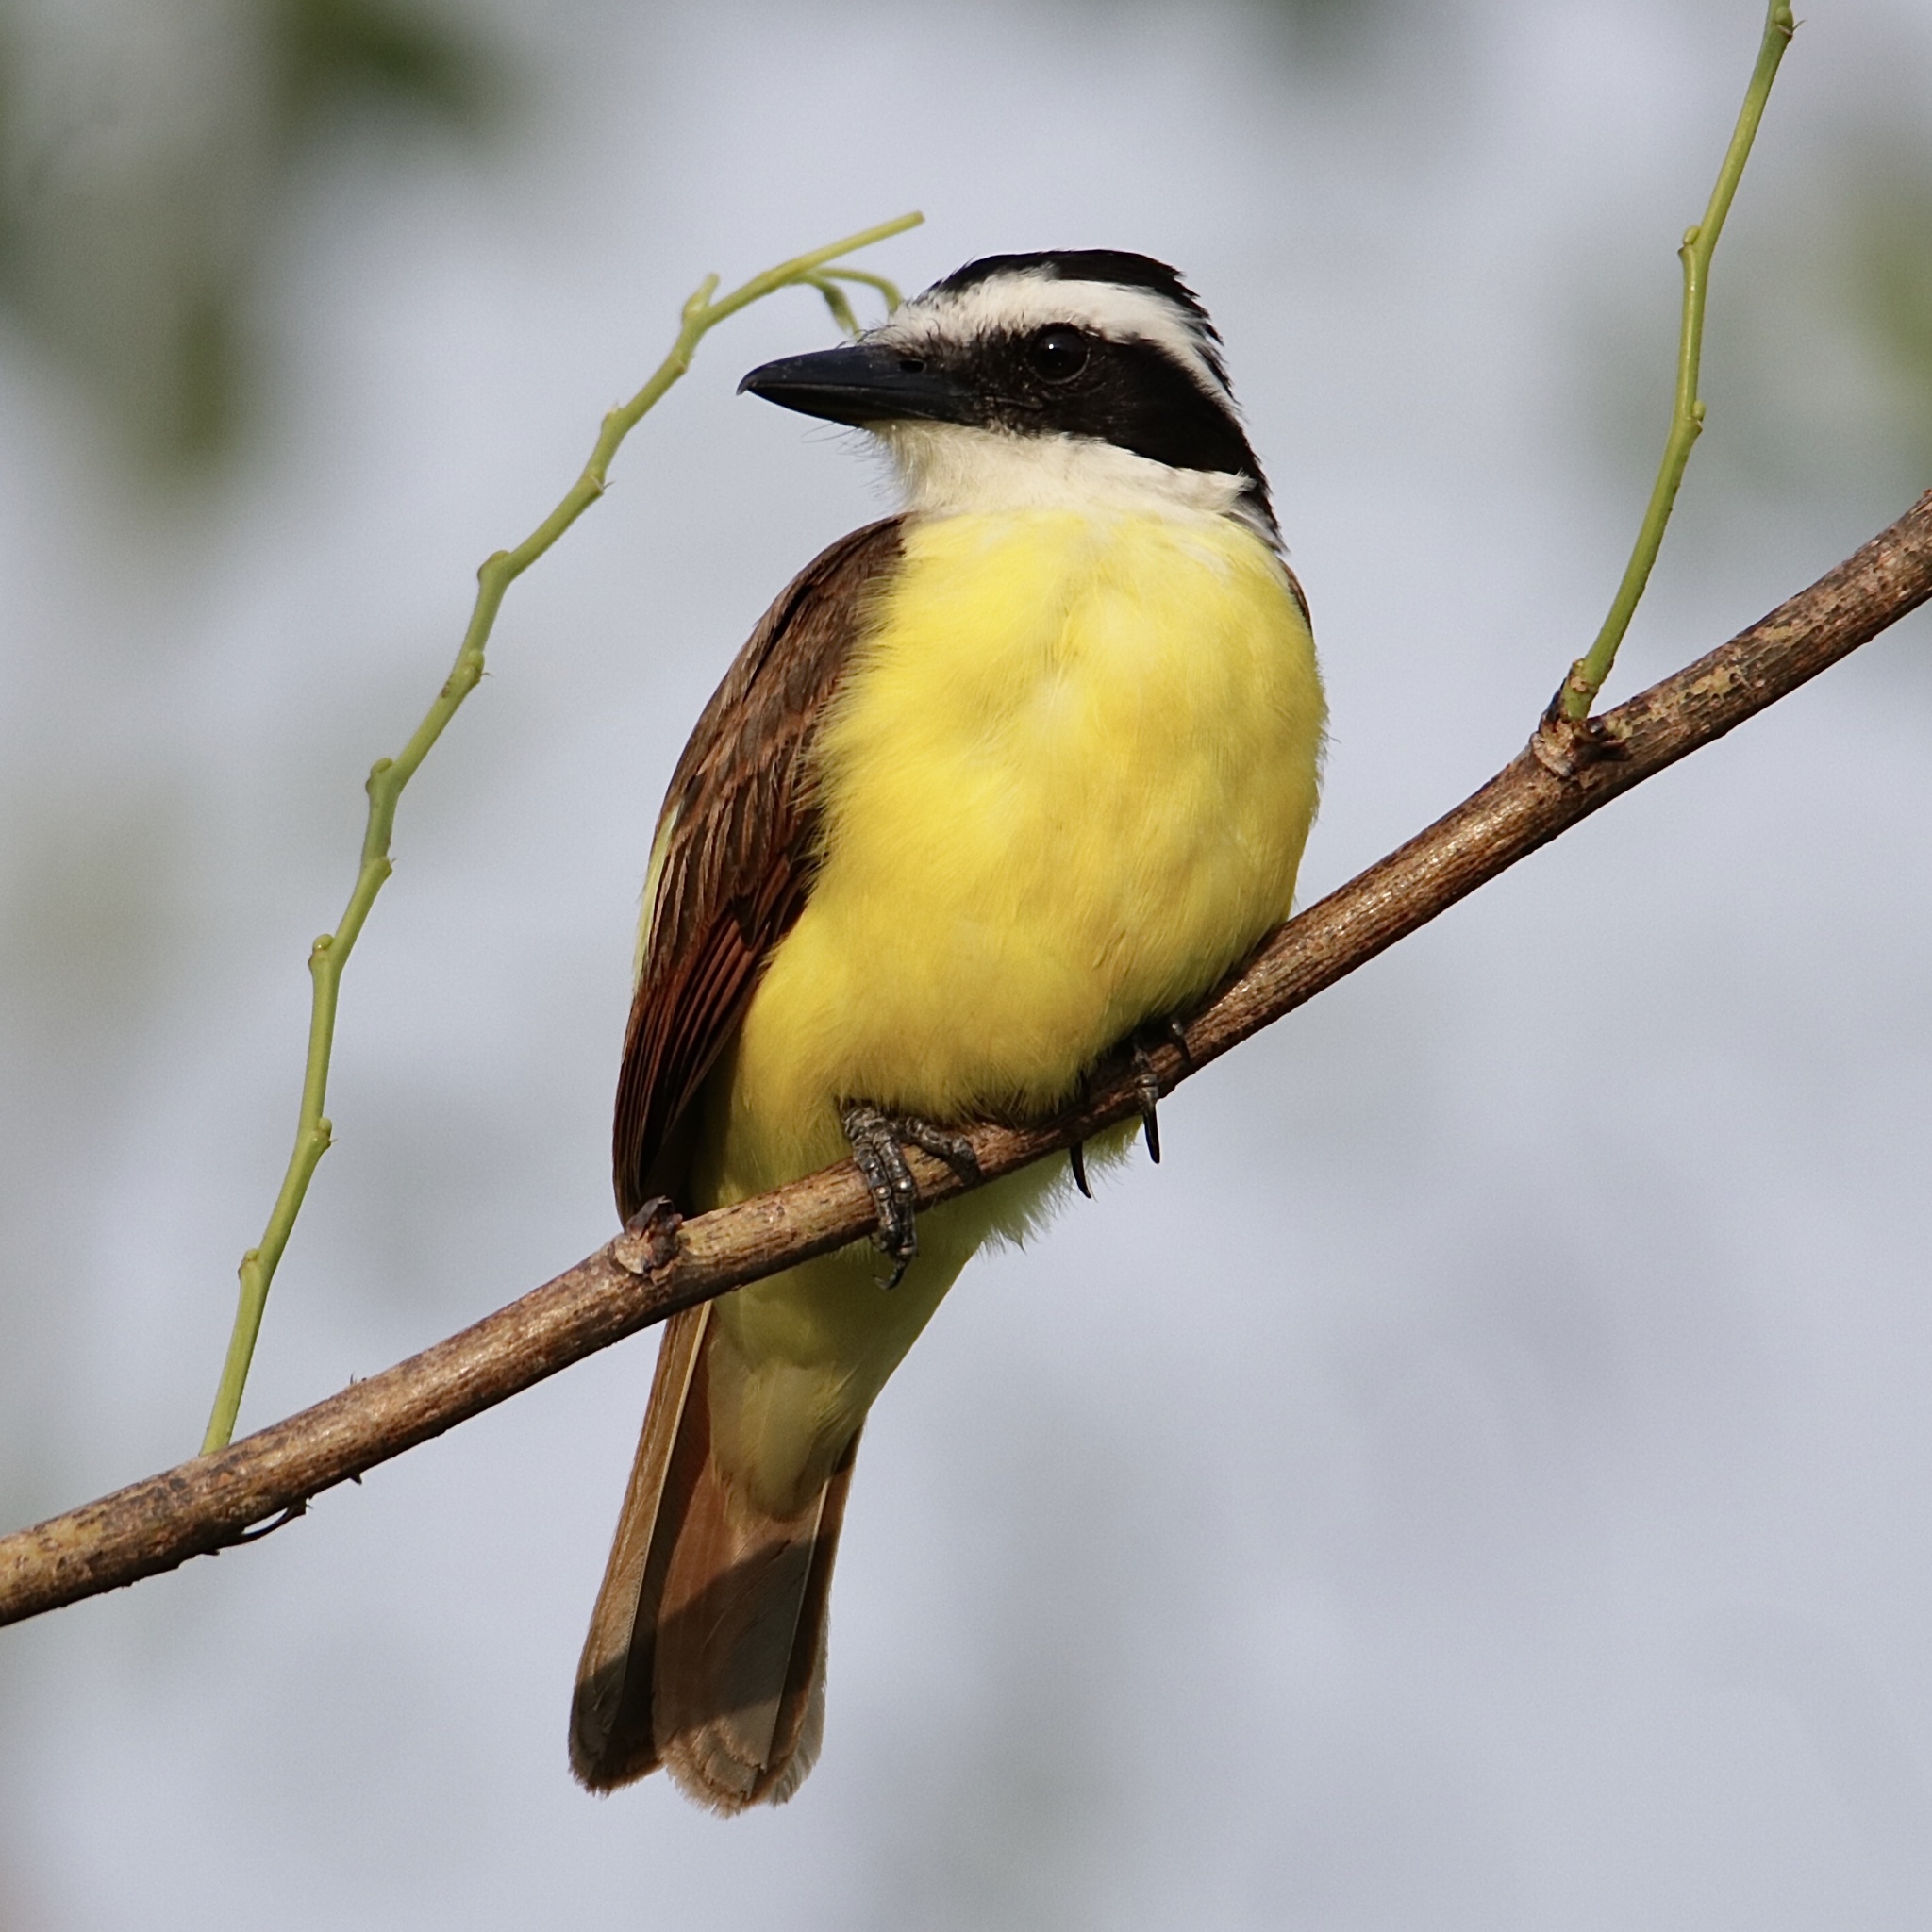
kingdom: Animalia
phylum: Chordata
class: Aves
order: Passeriformes
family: Tyrannidae
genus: Pitangus
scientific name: Pitangus sulphuratus
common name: Great kiskadee
